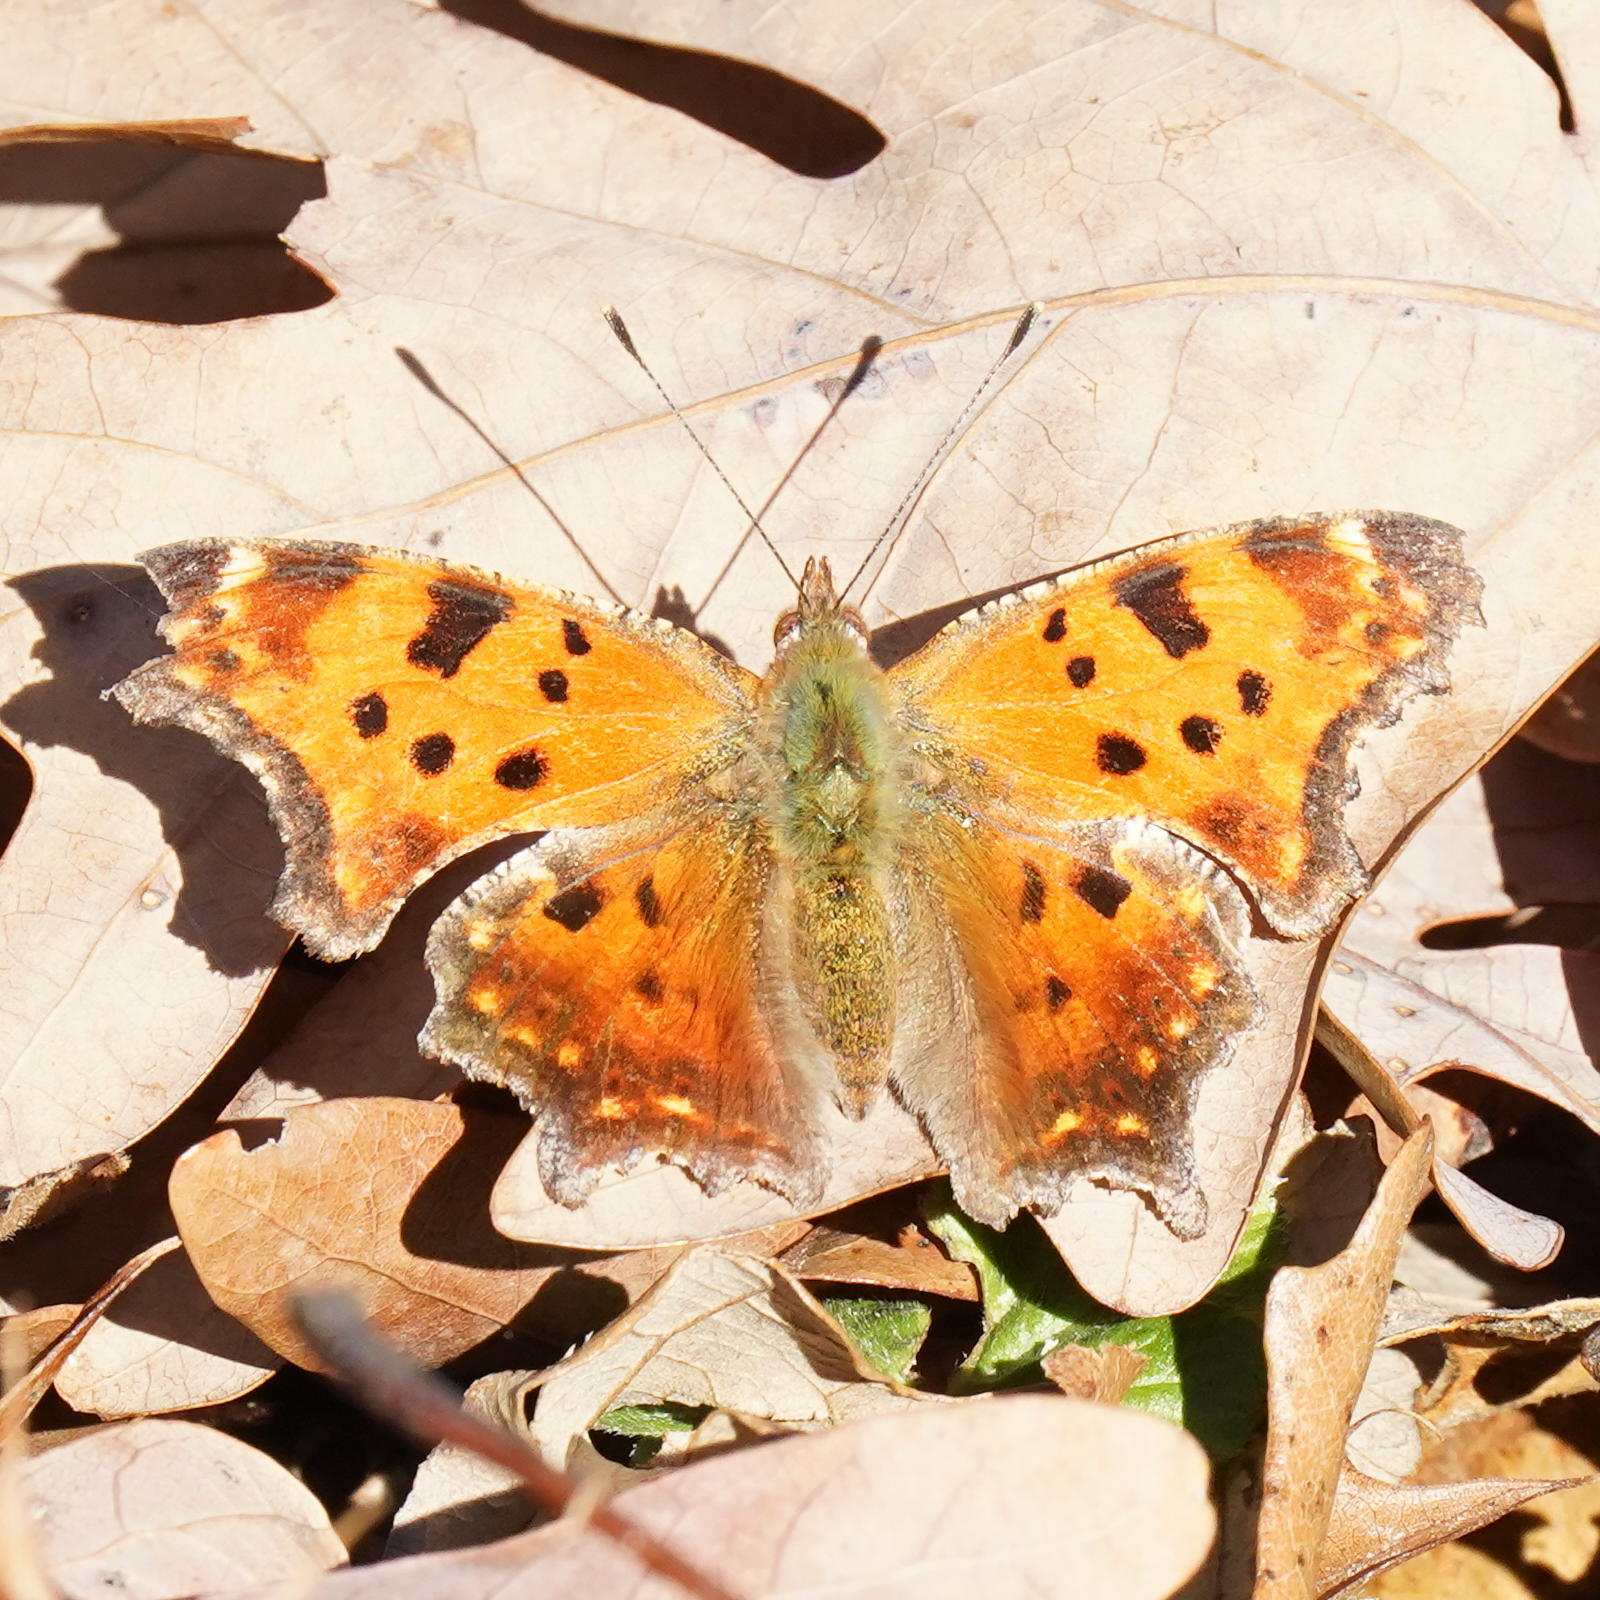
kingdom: Animalia
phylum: Arthropoda
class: Insecta
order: Lepidoptera
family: Nymphalidae
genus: Polygonia
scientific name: Polygonia comma
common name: Eastern comma
